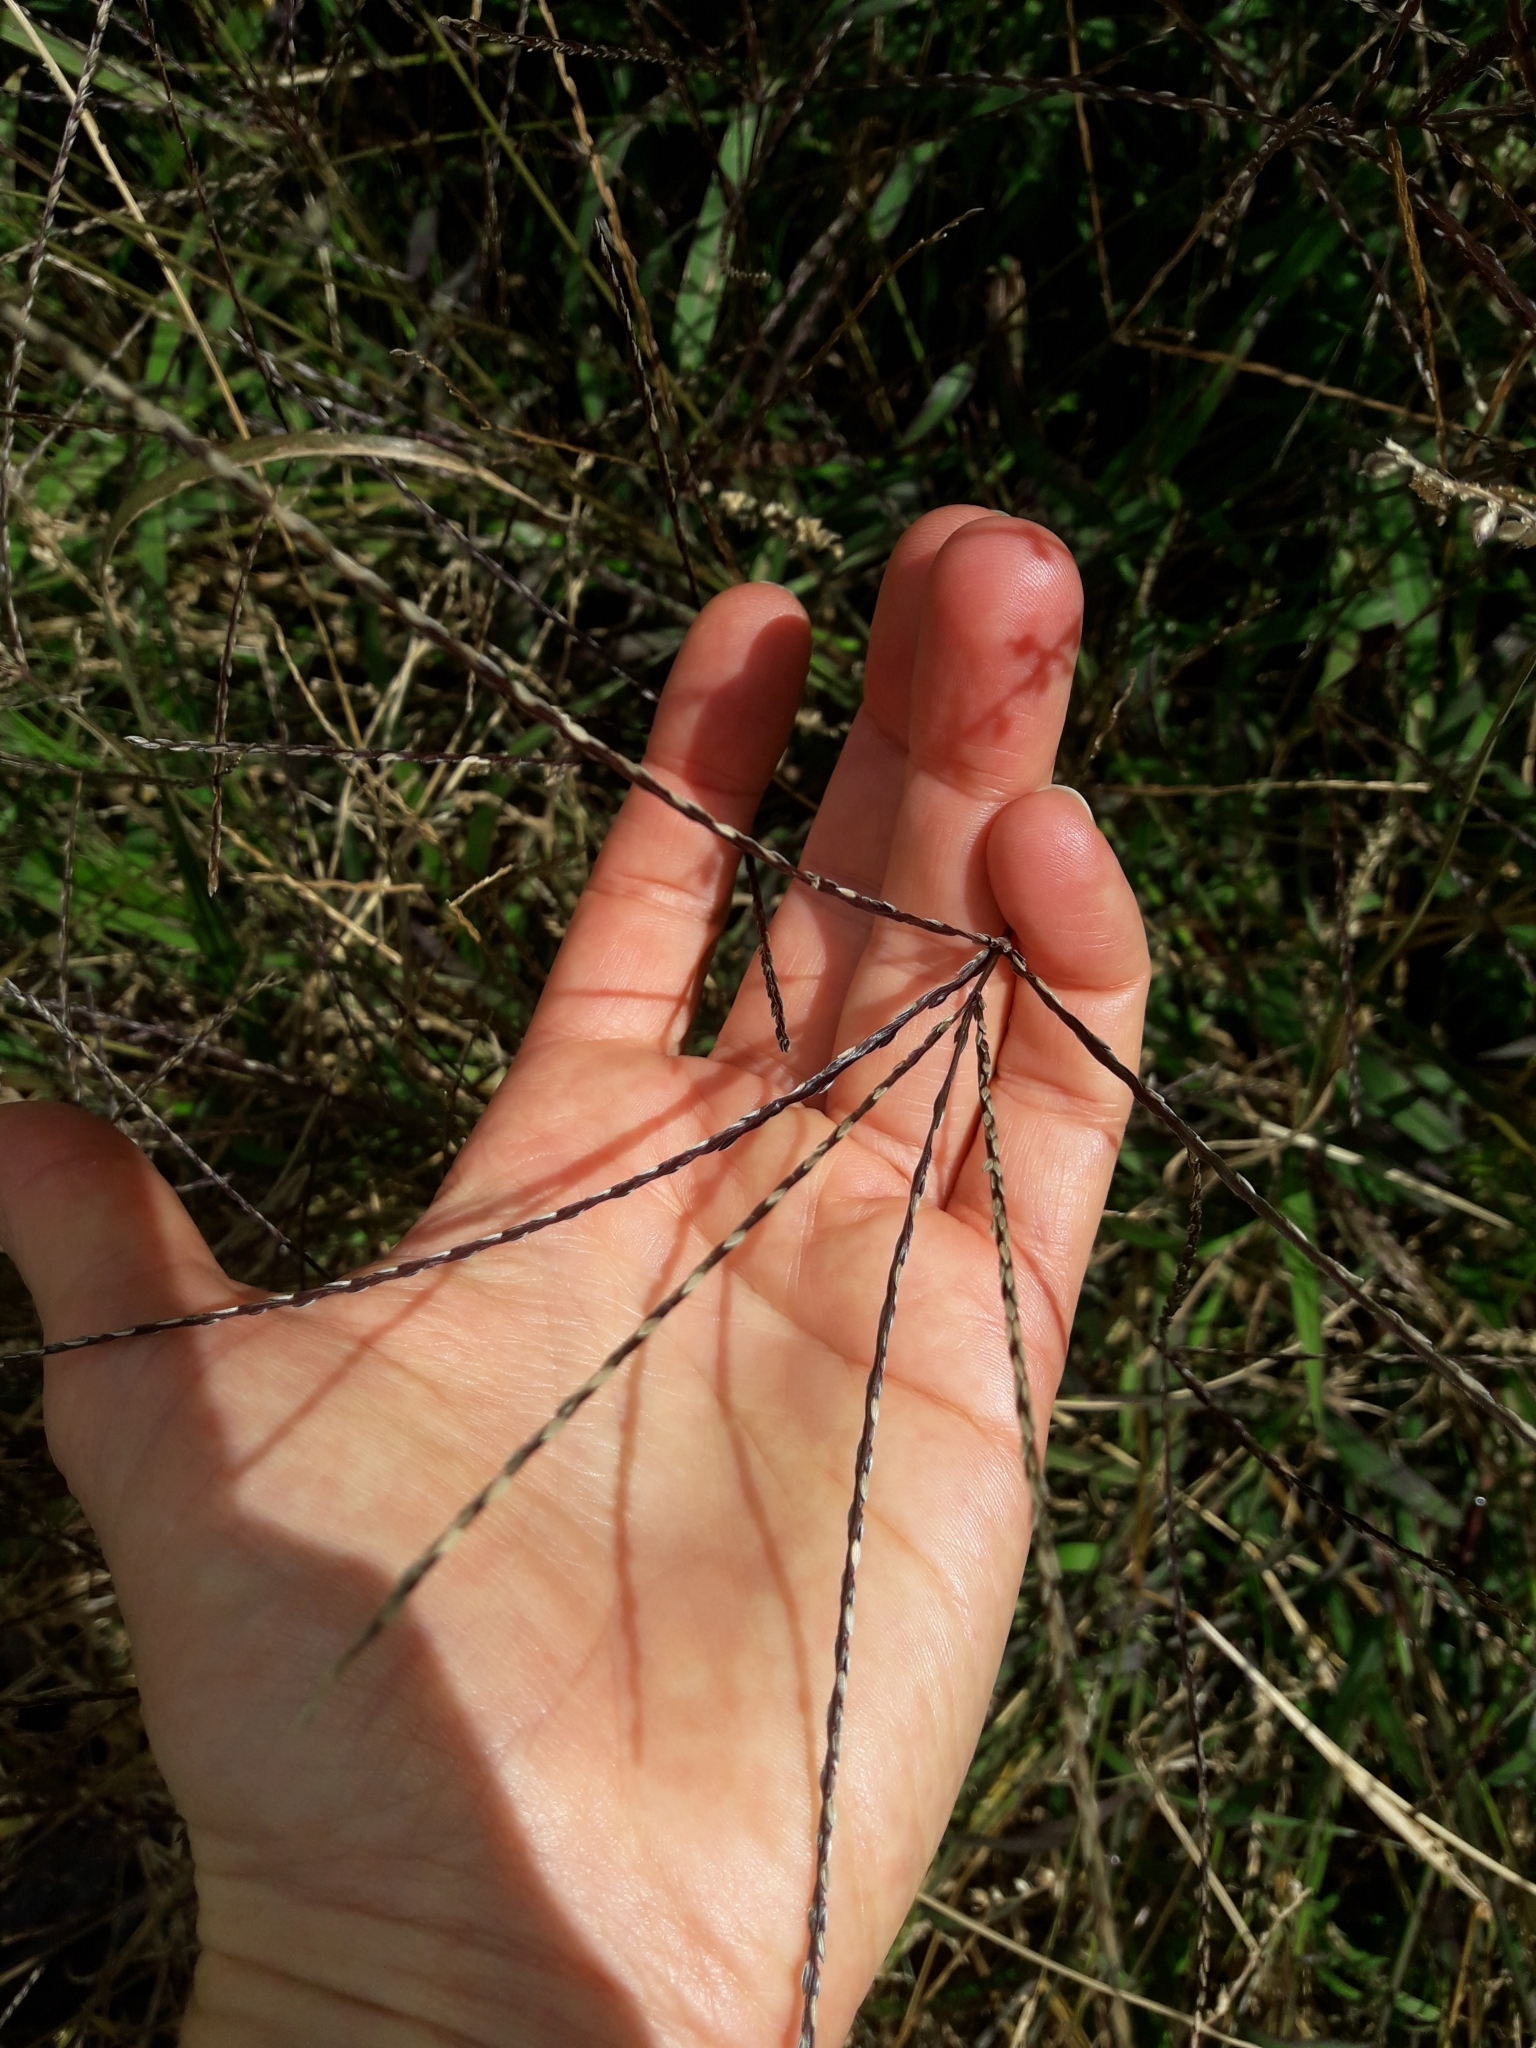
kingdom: Plantae
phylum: Tracheophyta
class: Liliopsida
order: Poales
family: Poaceae
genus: Digitaria
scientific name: Digitaria sanguinalis
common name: Hairy crabgrass
